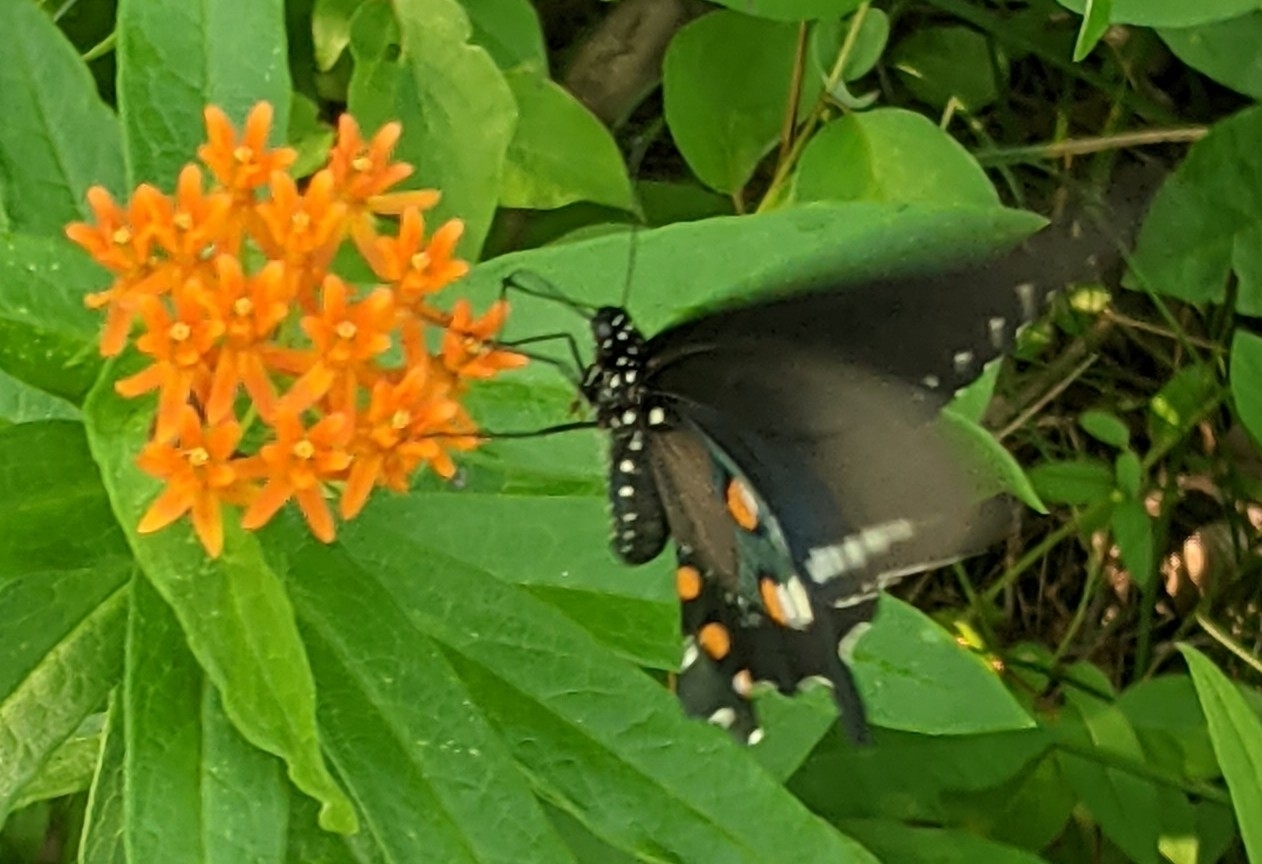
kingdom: Animalia
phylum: Arthropoda
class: Insecta
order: Lepidoptera
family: Papilionidae
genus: Battus
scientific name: Battus philenor
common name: Pipevine swallowtail
